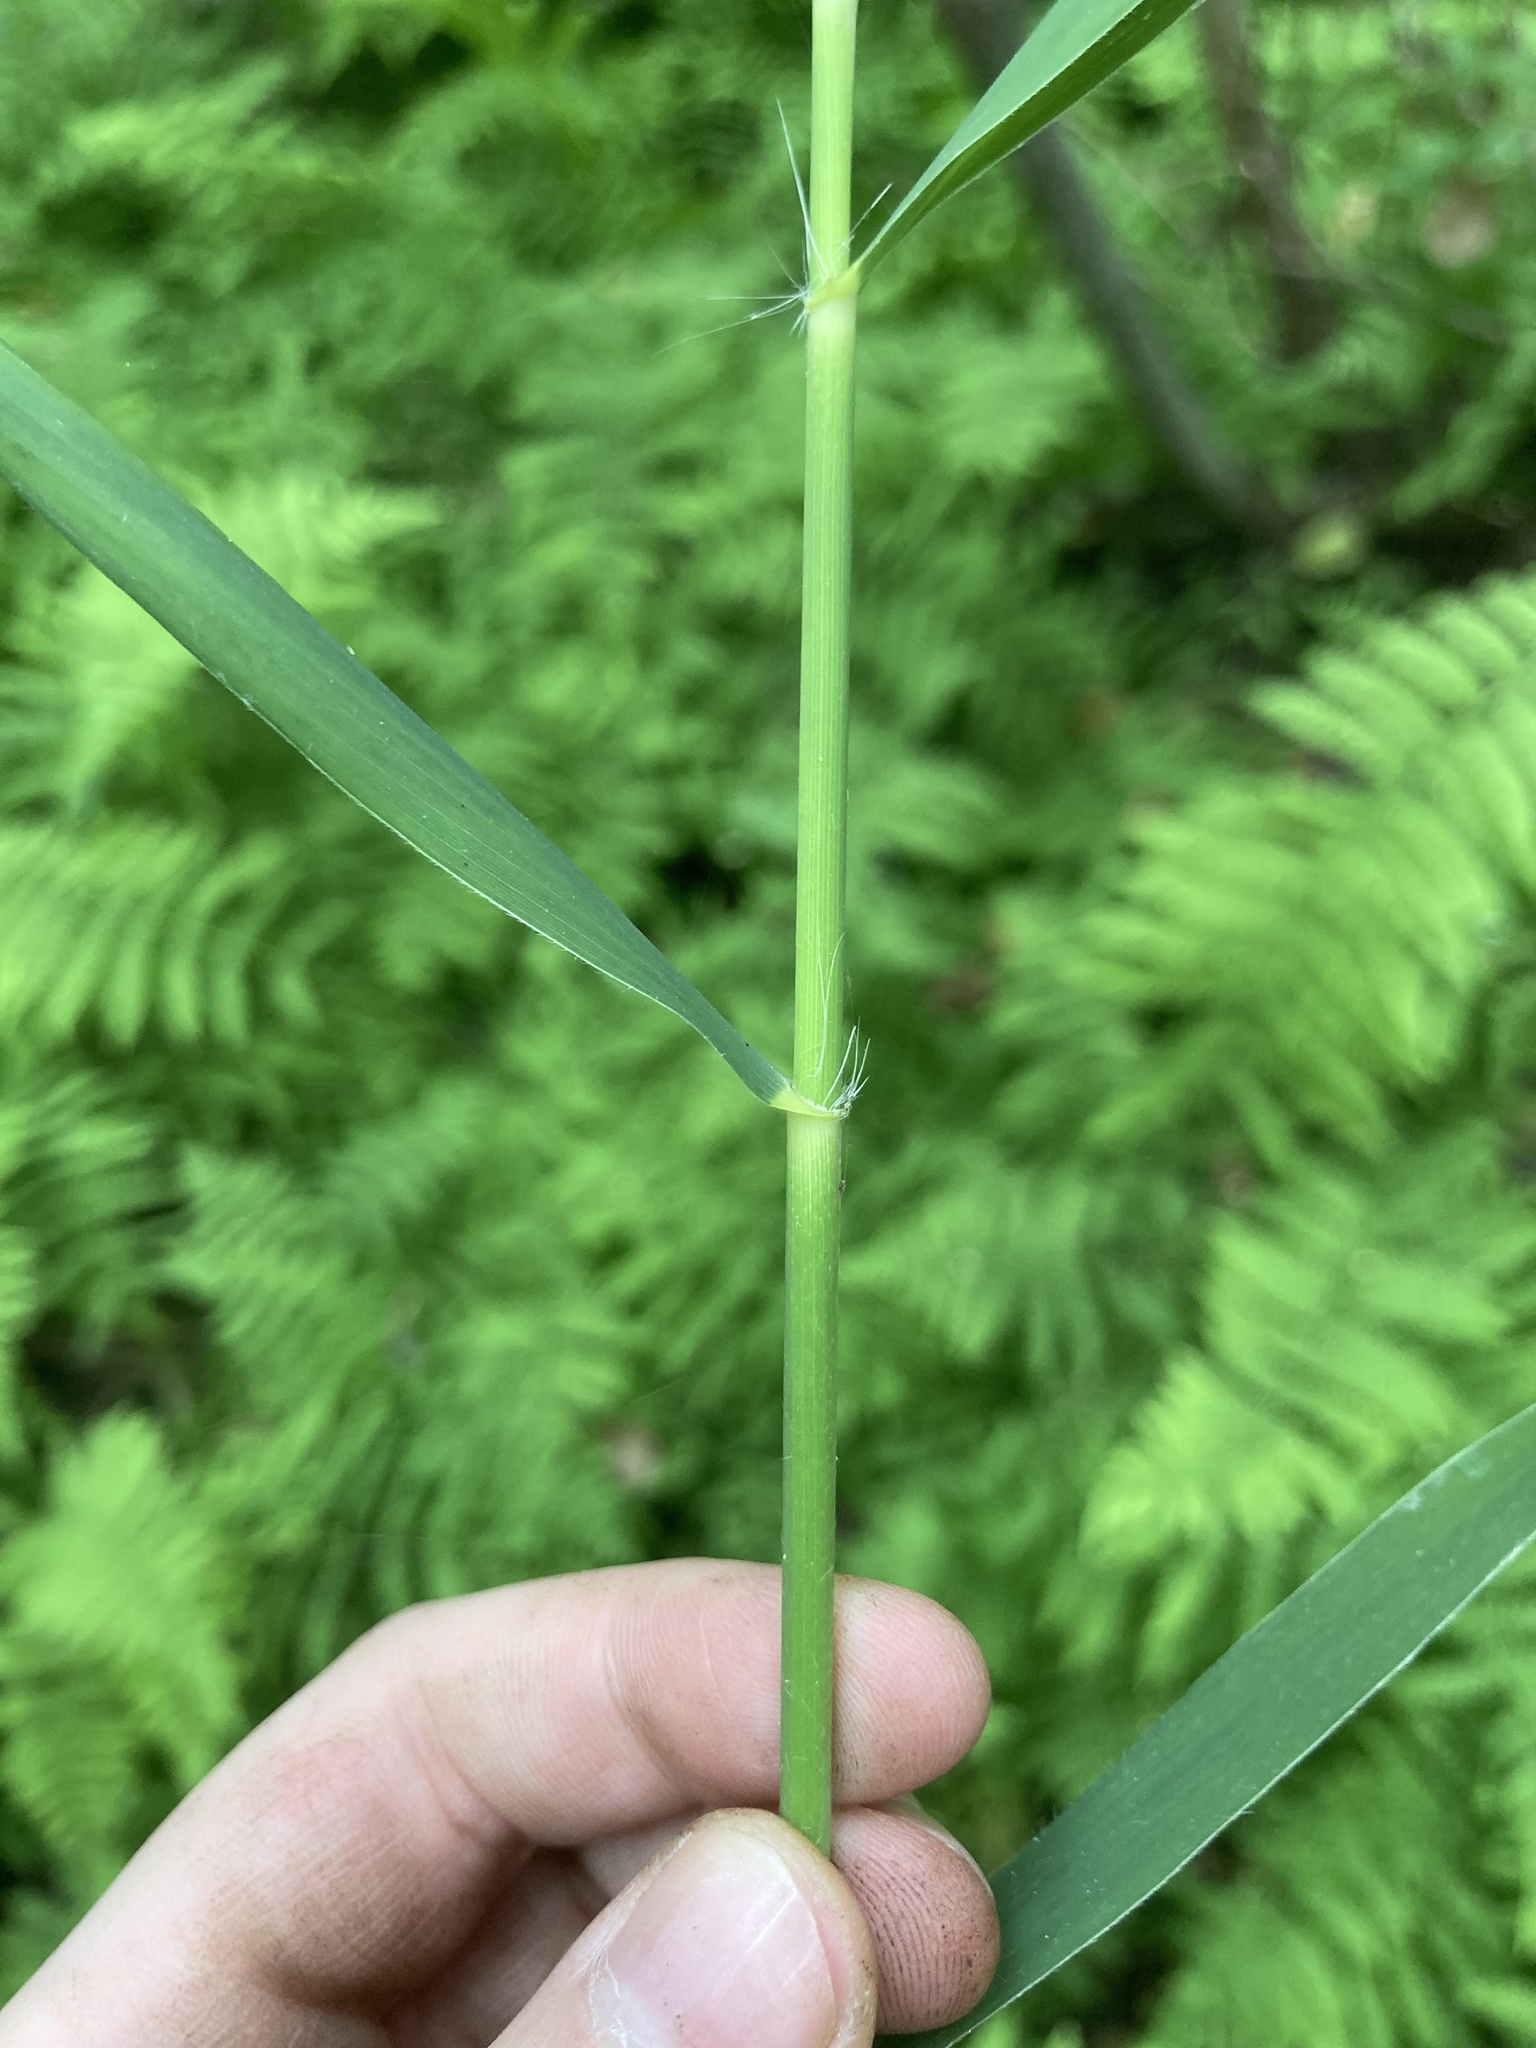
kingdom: Plantae
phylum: Tracheophyta
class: Liliopsida
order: Poales
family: Poaceae
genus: Phragmites
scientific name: Phragmites australis
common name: Common reed
